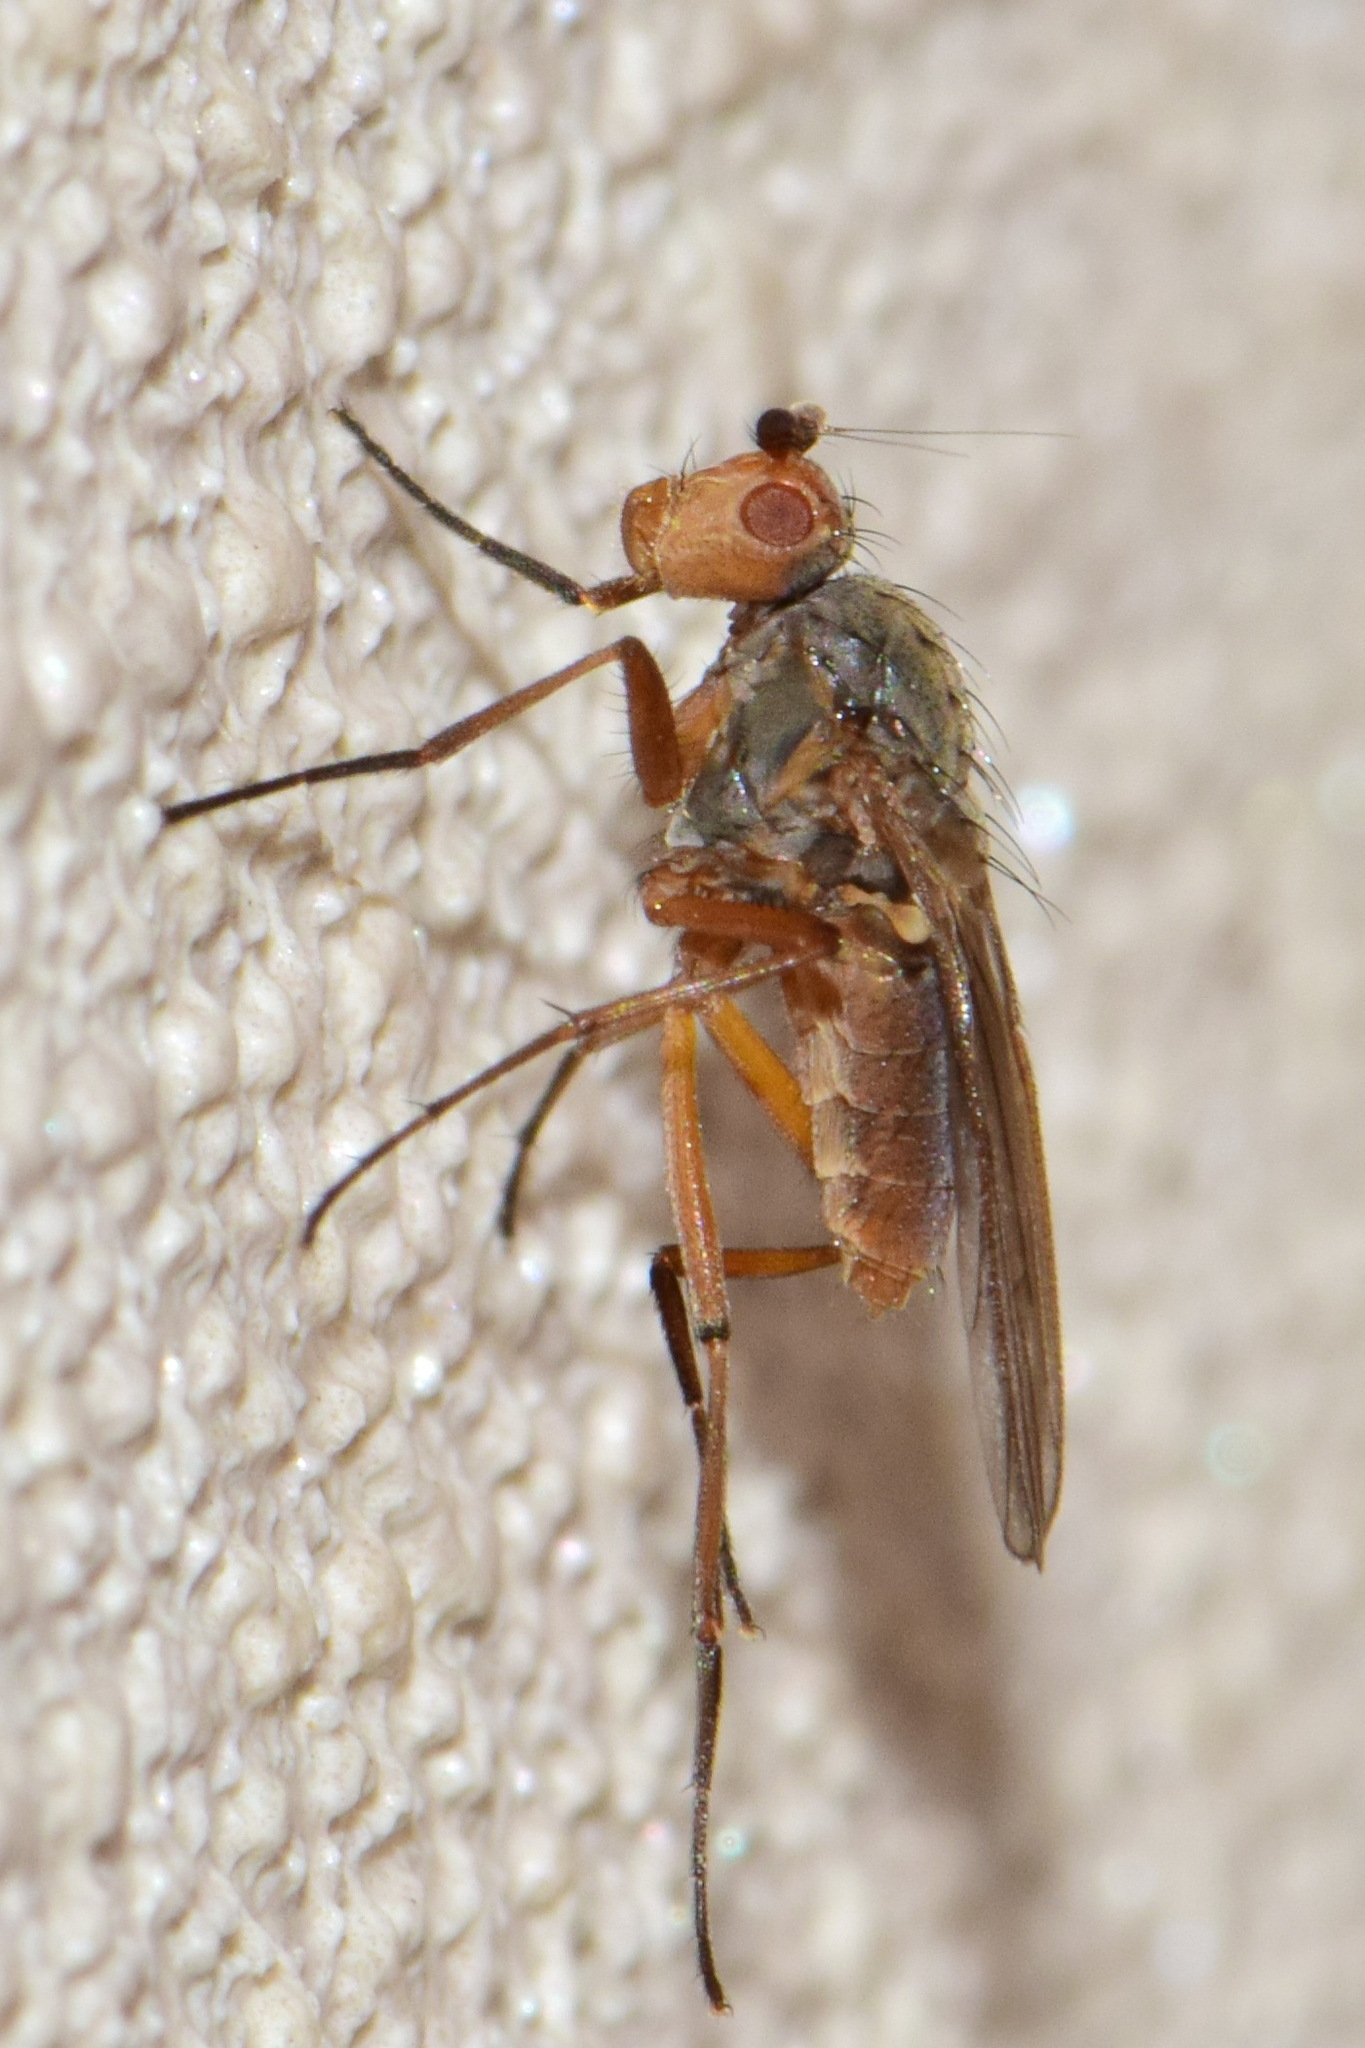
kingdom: Animalia
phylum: Arthropoda
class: Insecta
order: Diptera
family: Heleomyzidae
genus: Eccoptomera
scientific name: Eccoptomera microps
